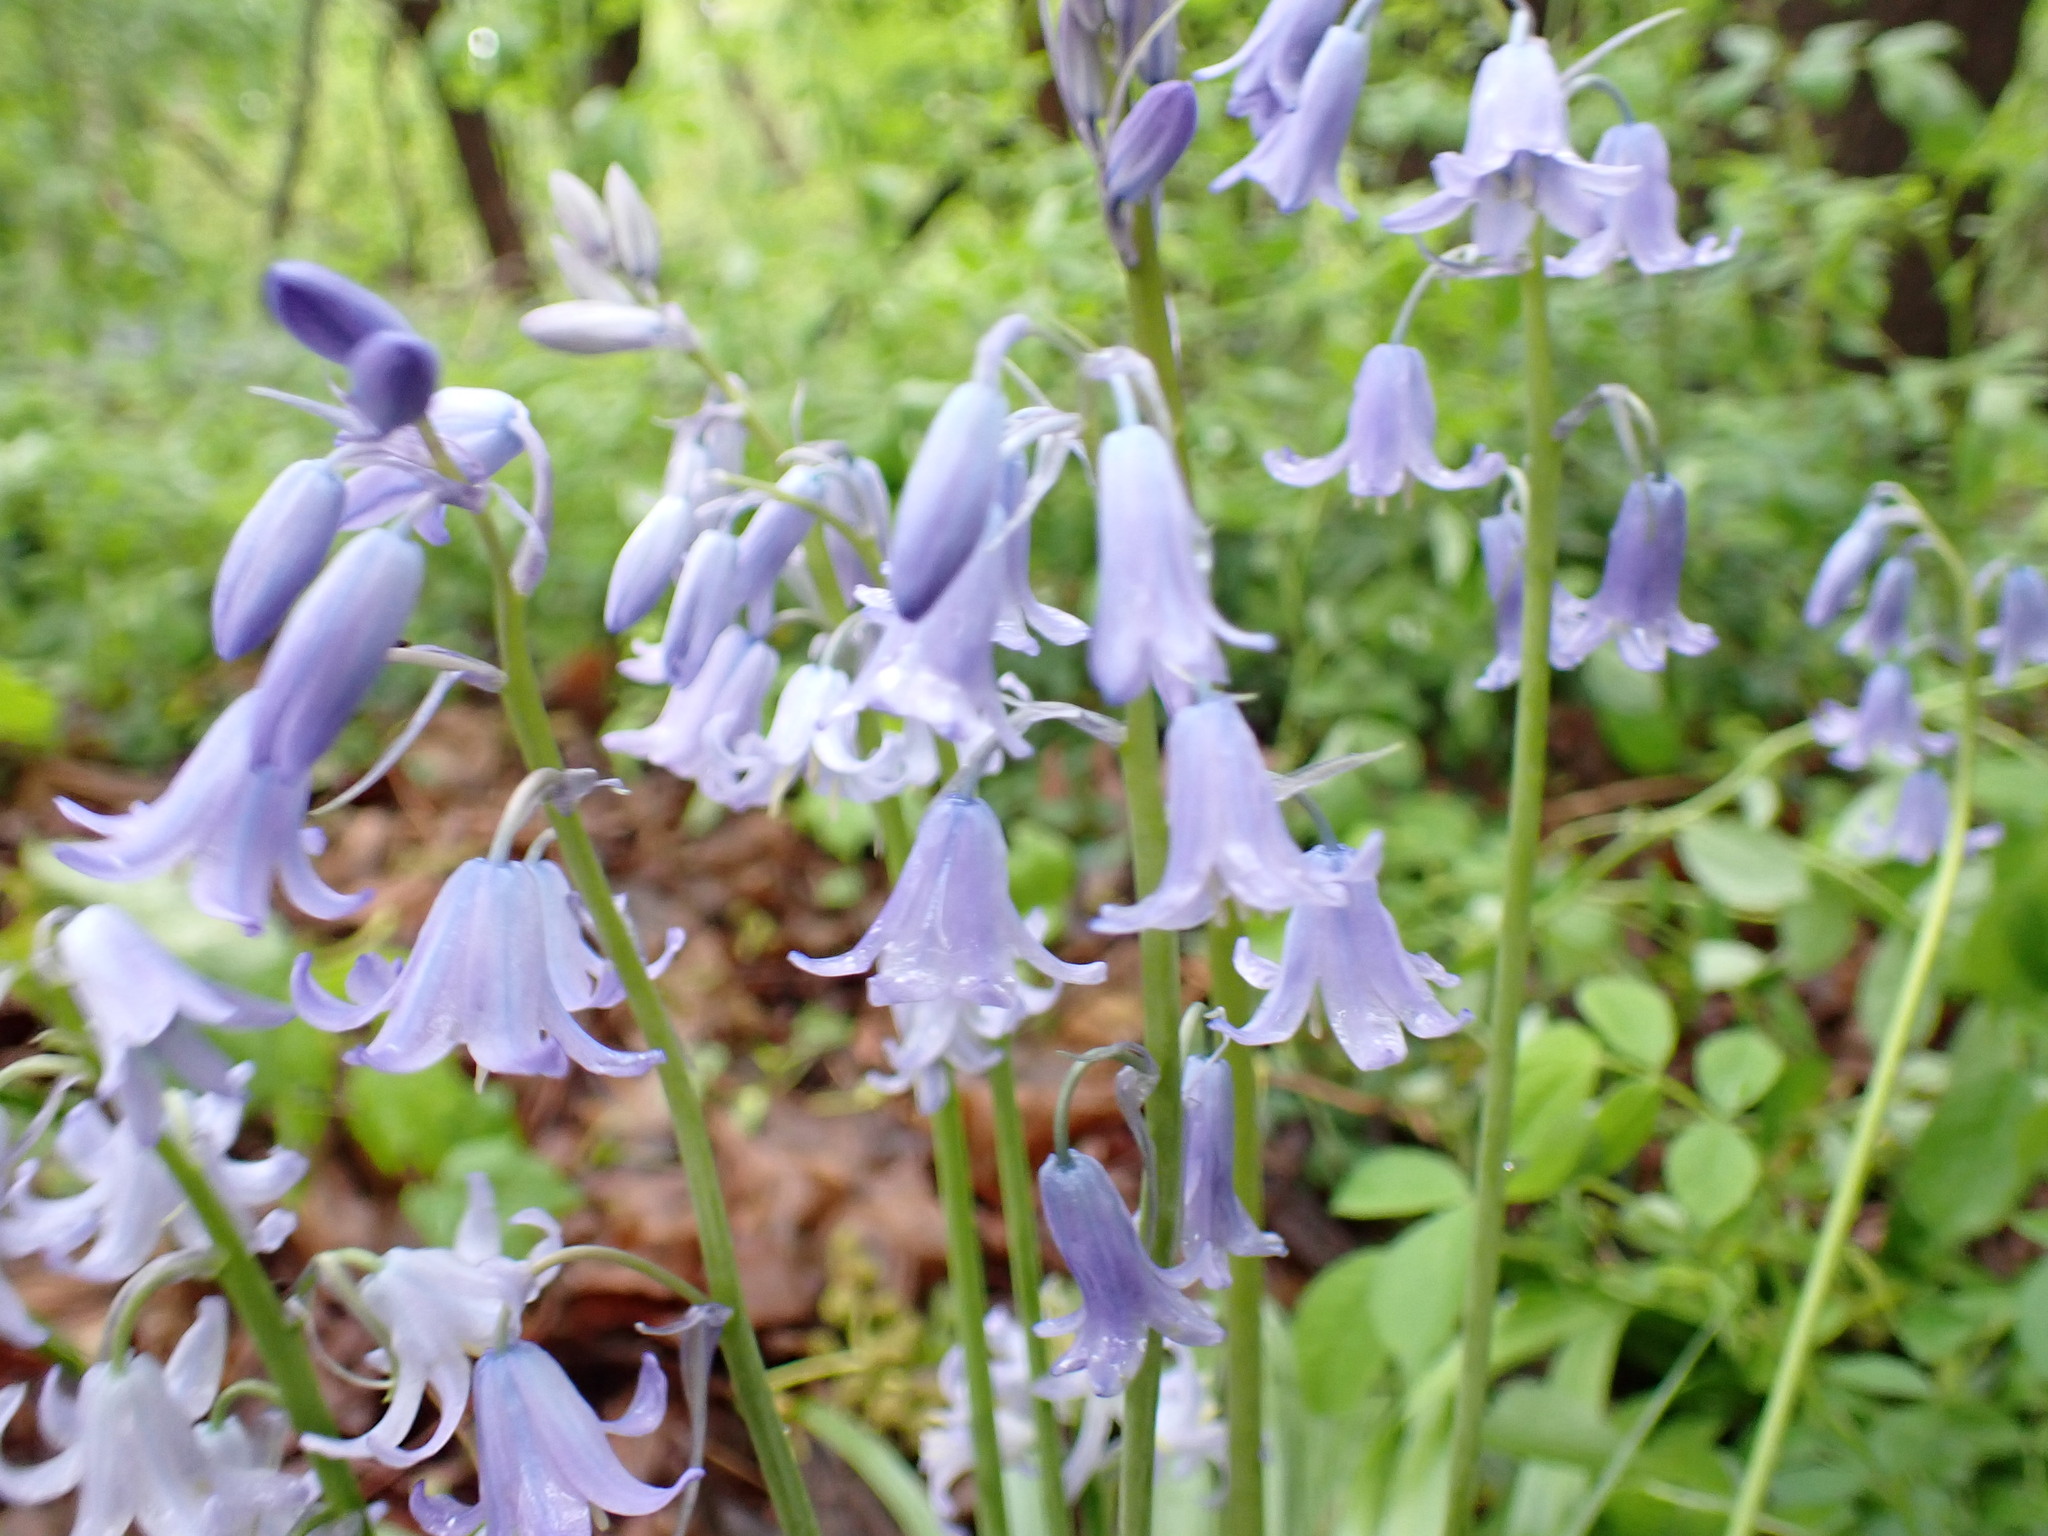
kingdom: Plantae
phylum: Tracheophyta
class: Liliopsida
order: Asparagales
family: Asparagaceae
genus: Hyacinthoides
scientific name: Hyacinthoides hispanica
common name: Spanish bluebell
